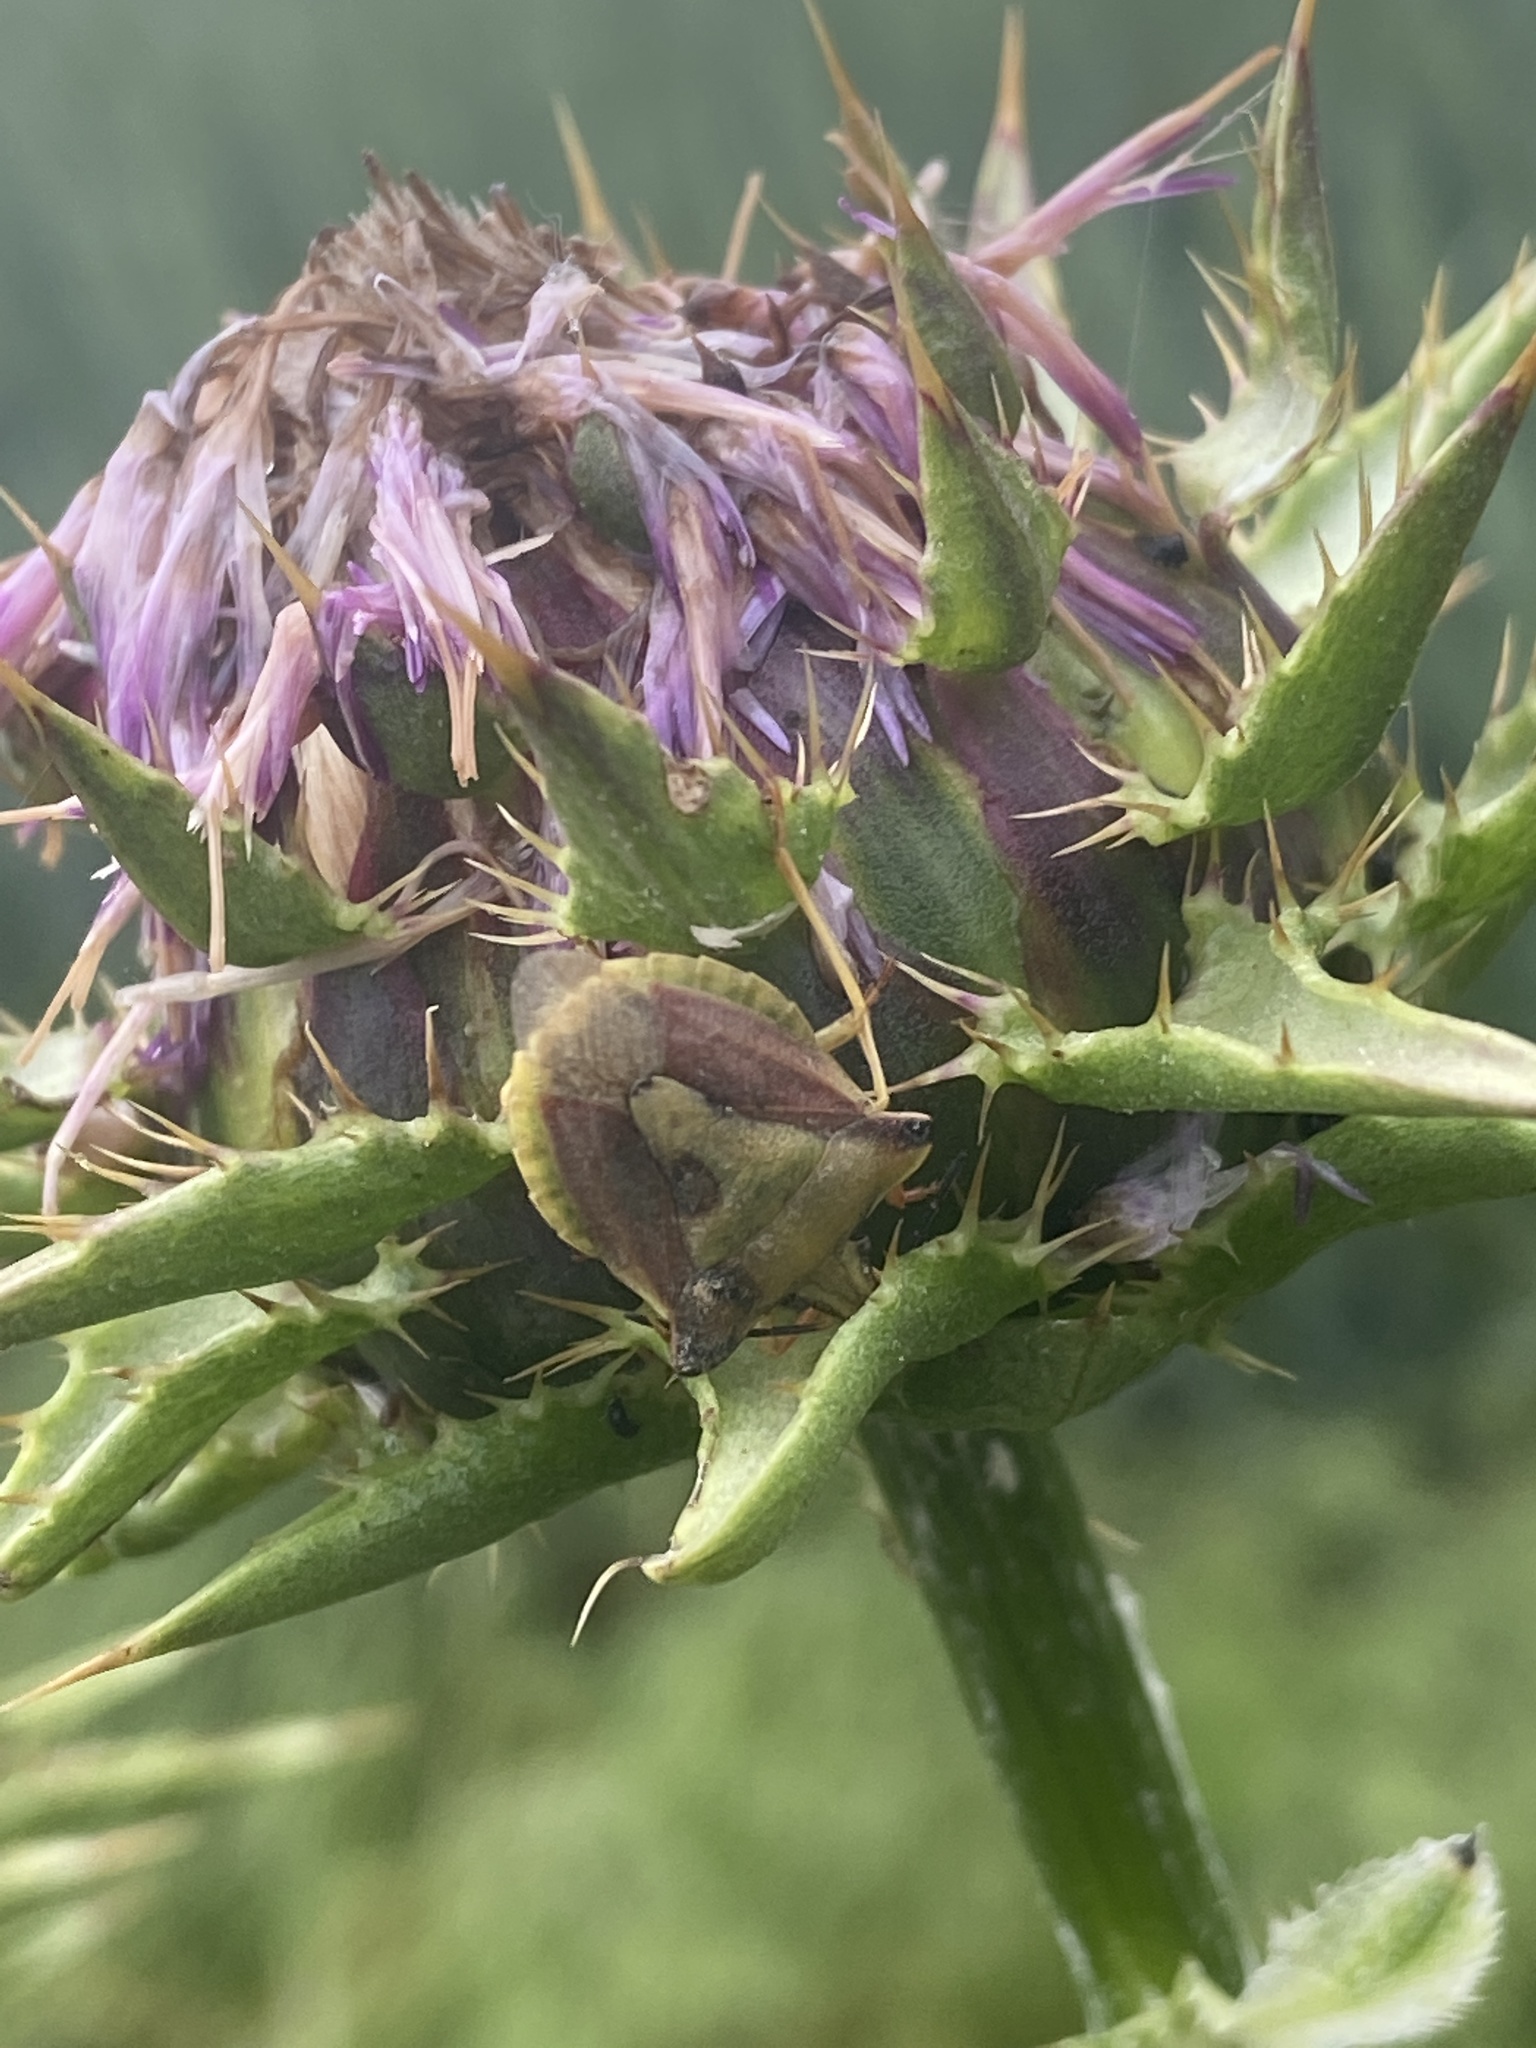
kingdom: Animalia
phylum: Arthropoda
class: Insecta
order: Hemiptera
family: Pentatomidae
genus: Carpocoris
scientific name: Carpocoris fuscispinus
